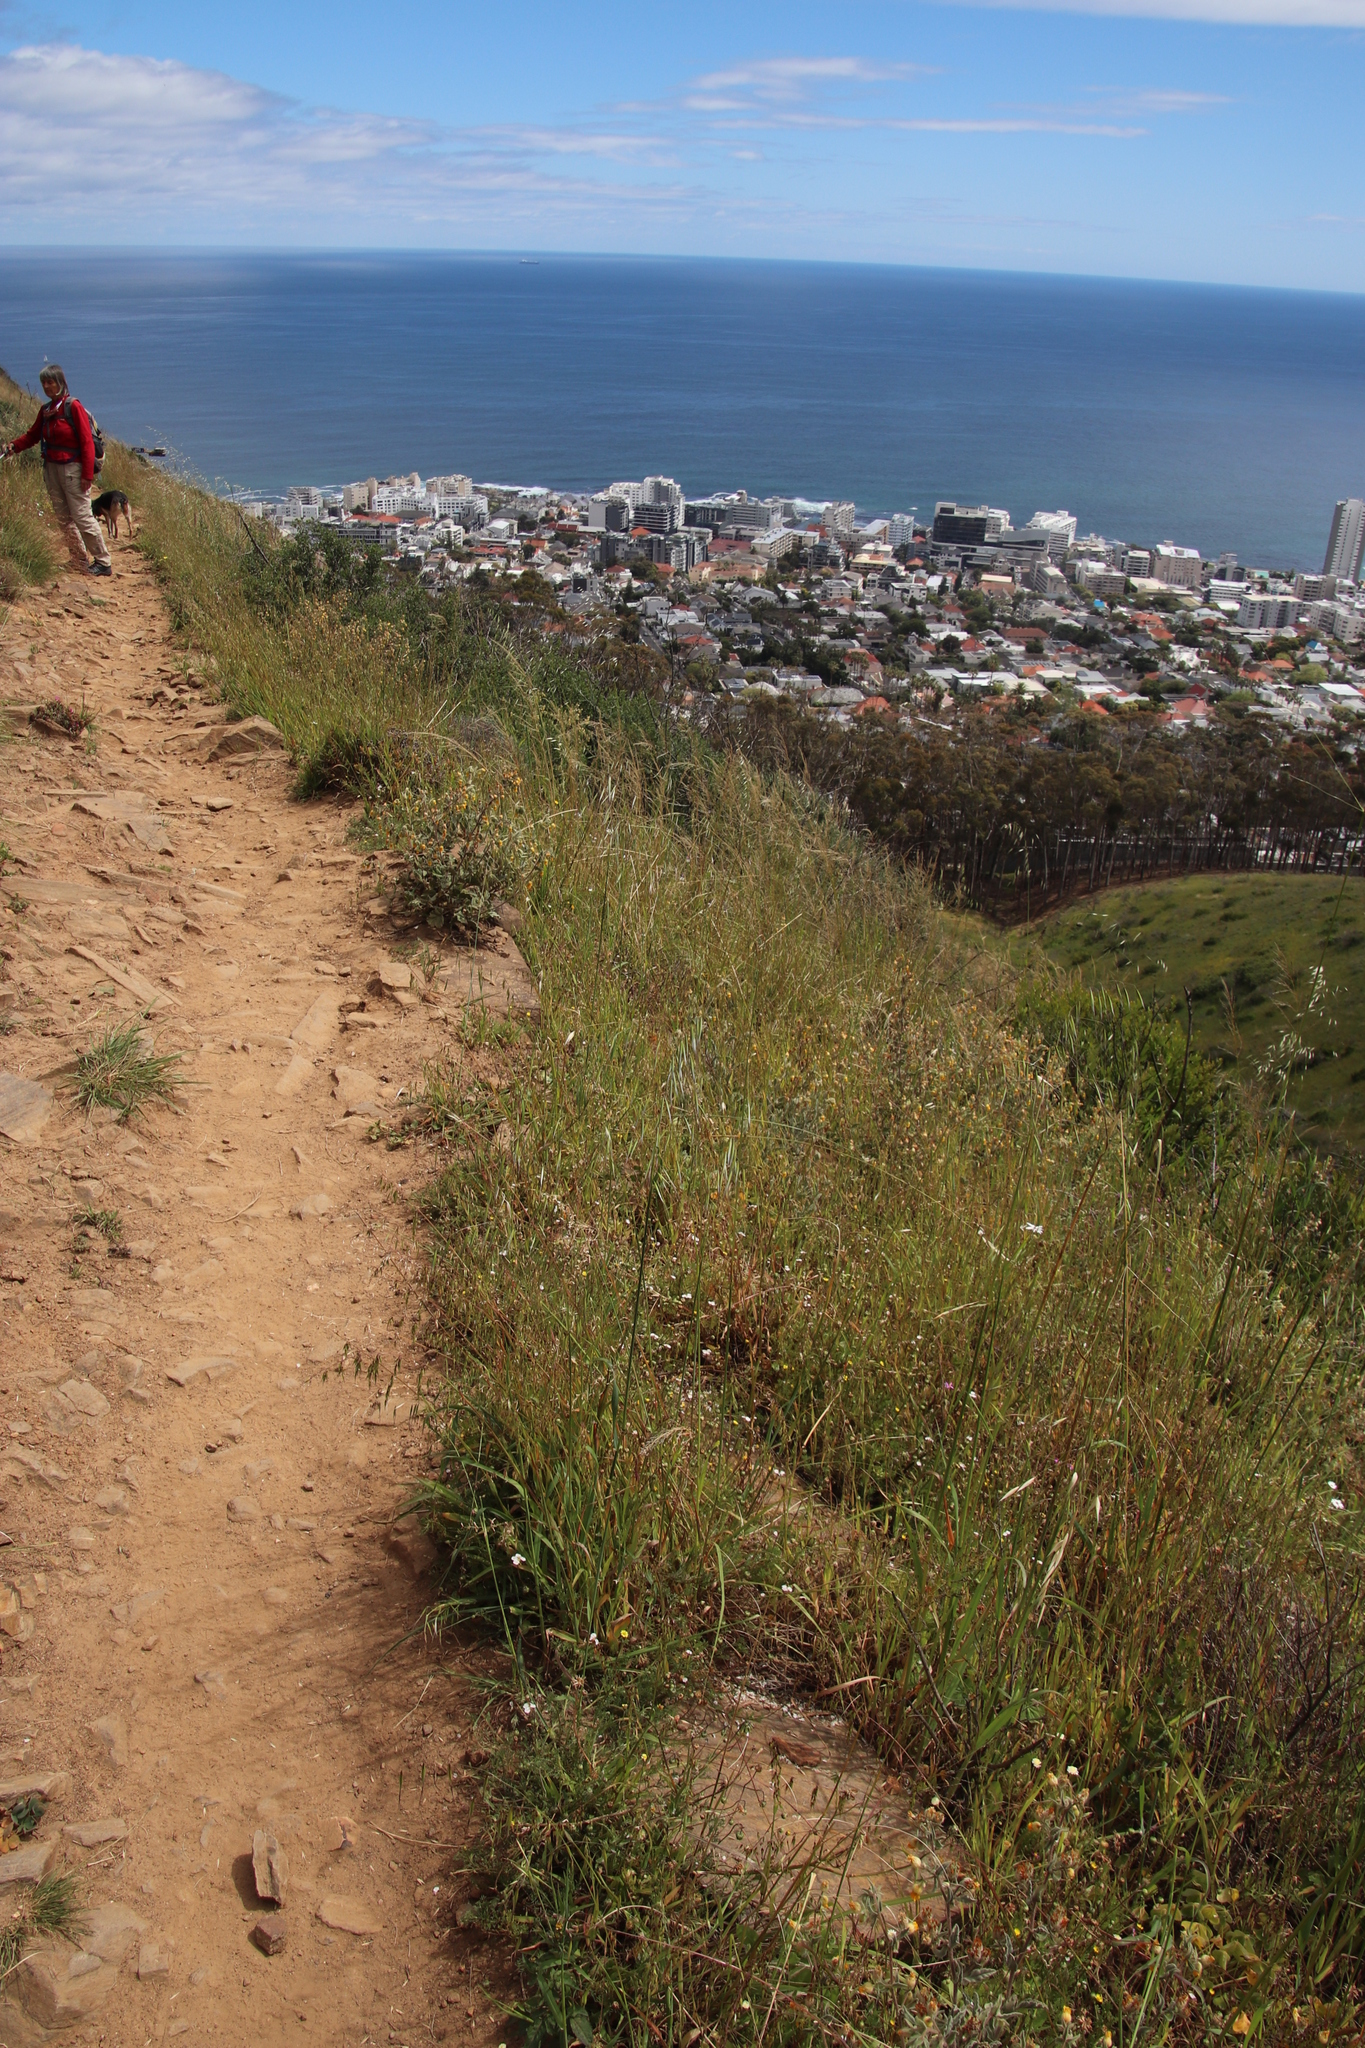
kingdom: Plantae
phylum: Tracheophyta
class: Liliopsida
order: Poales
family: Poaceae
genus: Avena
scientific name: Avena fatua
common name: Wild oat
